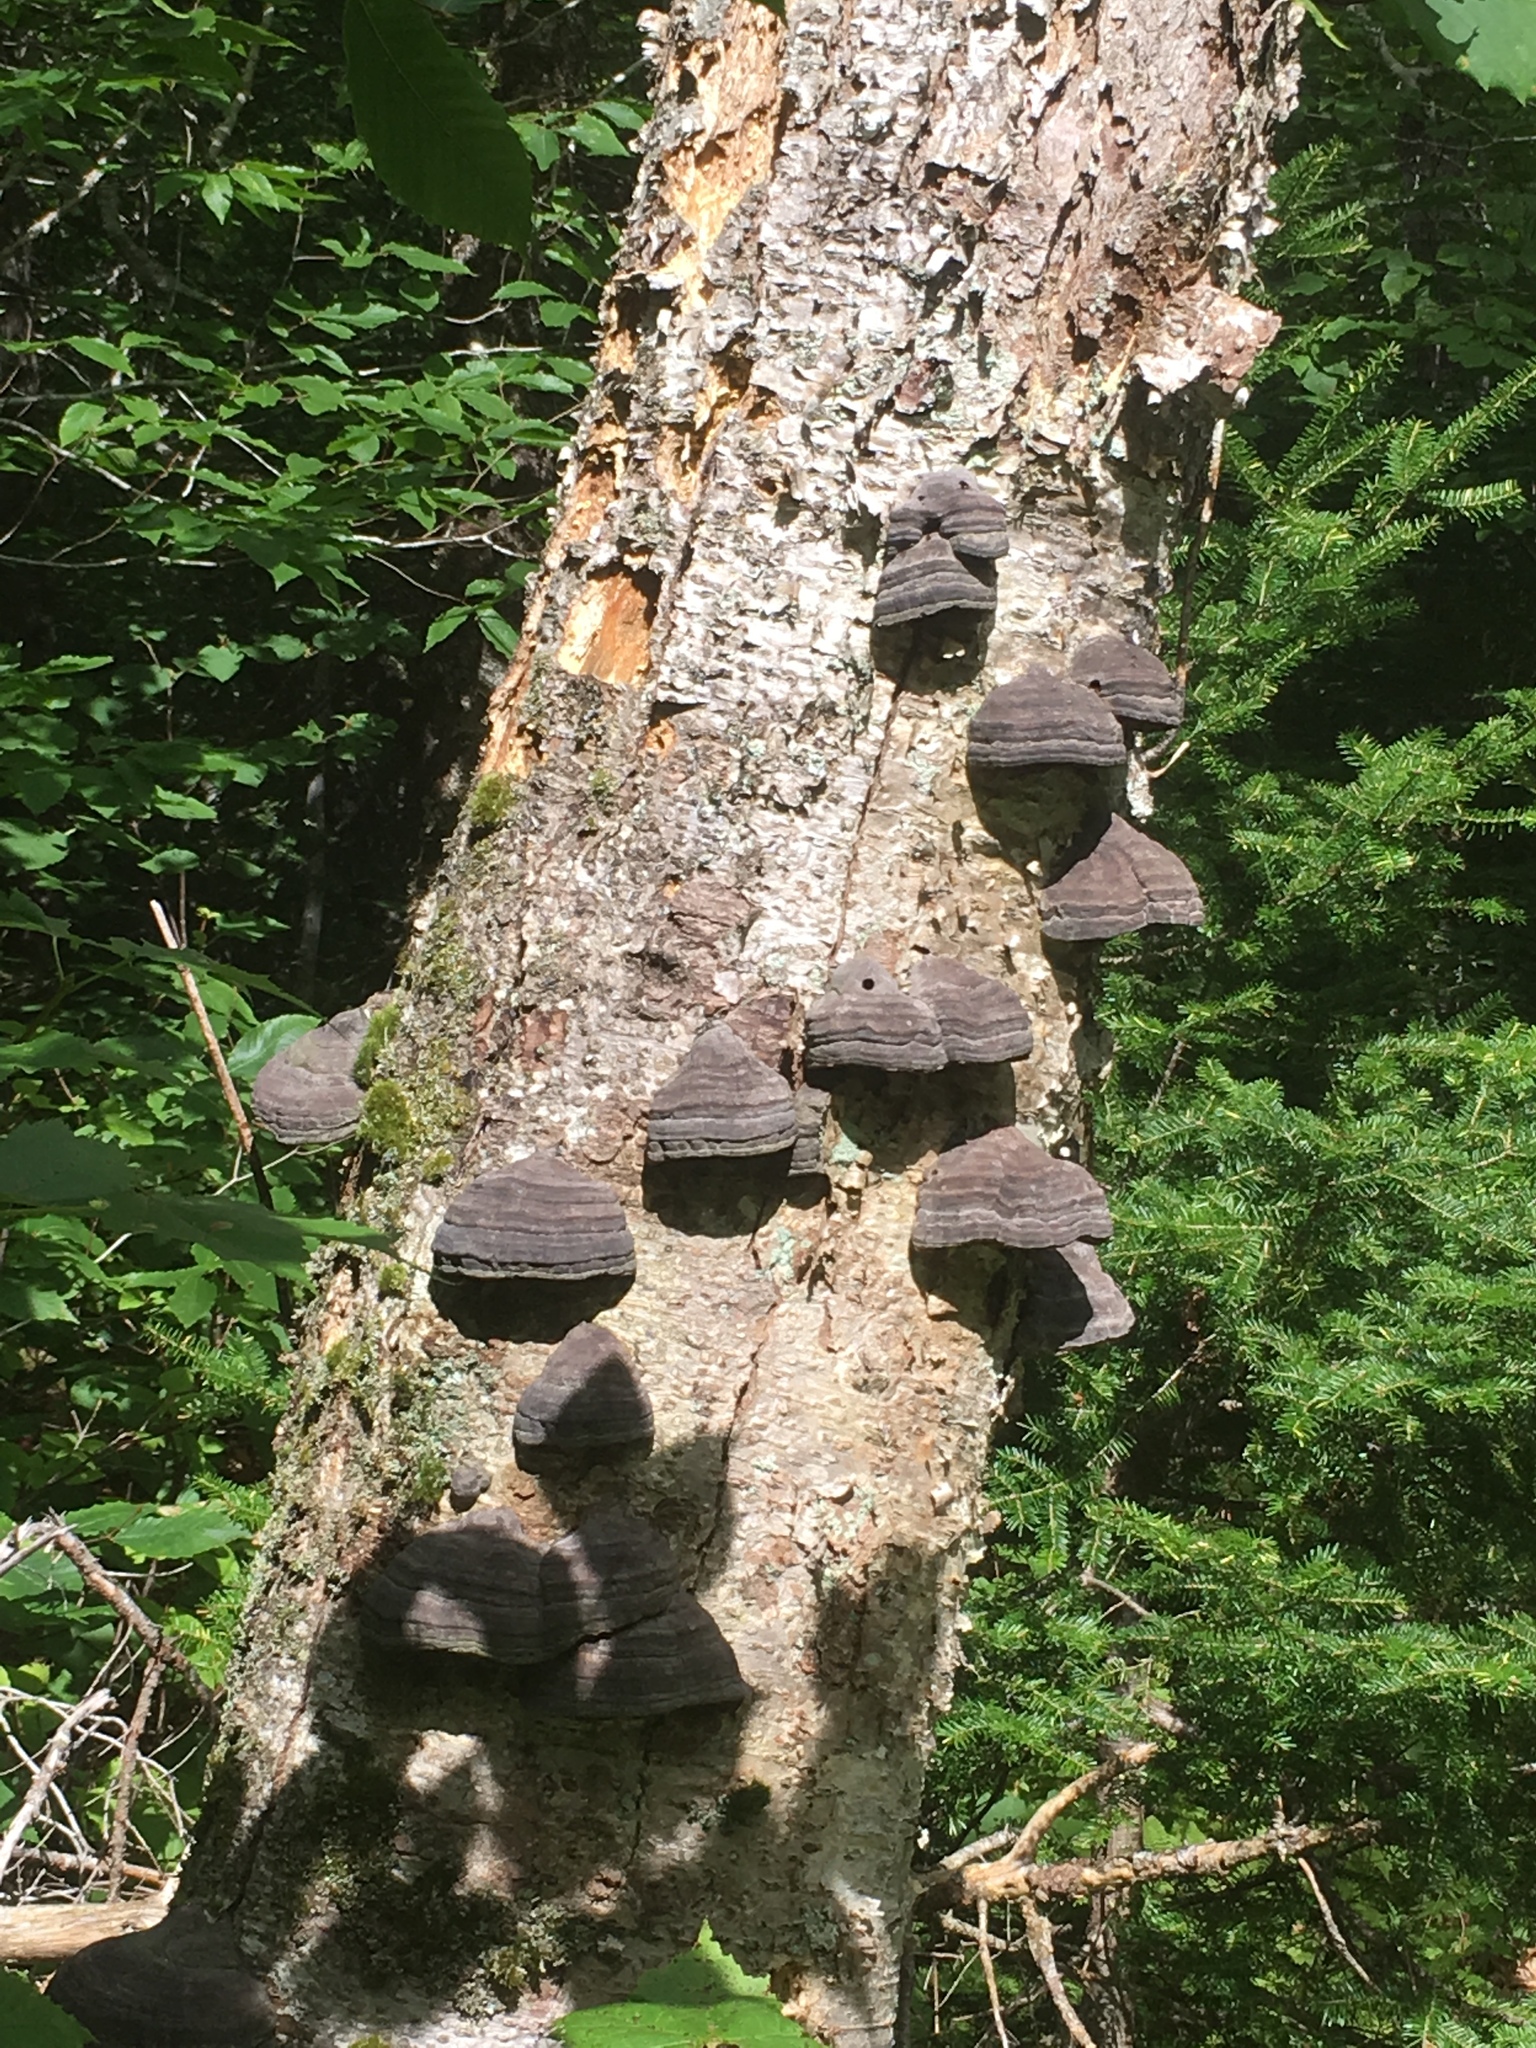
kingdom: Fungi
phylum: Basidiomycota
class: Agaricomycetes
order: Polyporales
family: Polyporaceae
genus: Fomes
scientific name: Fomes fomentarius
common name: Hoof fungus
